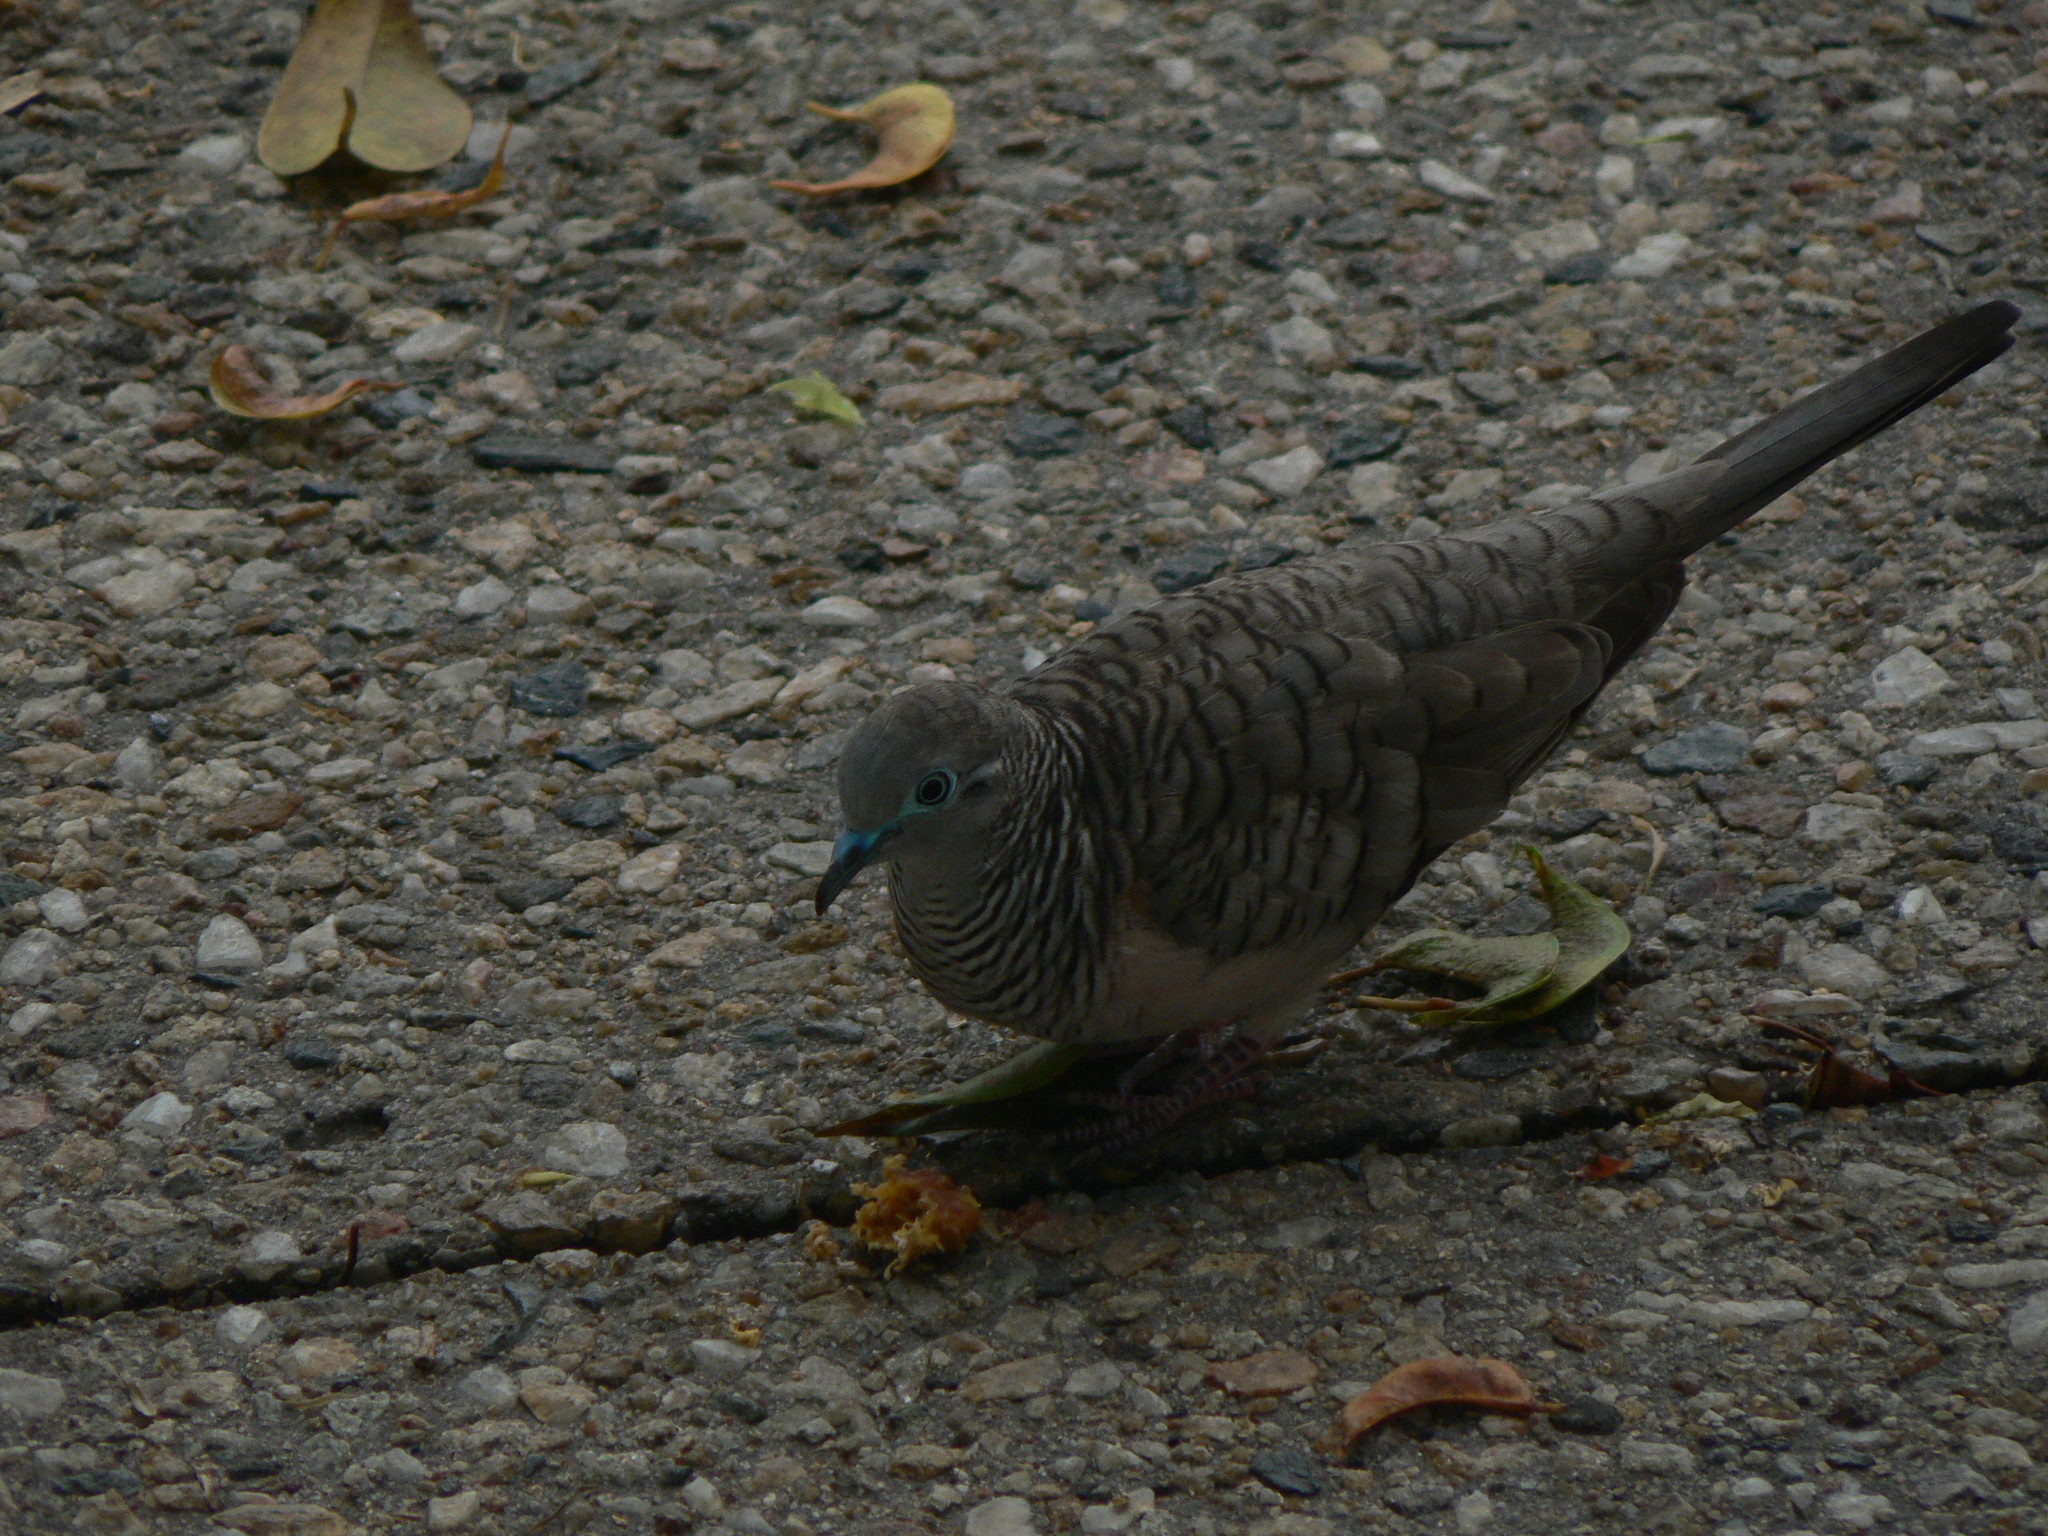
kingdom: Animalia
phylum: Chordata
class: Aves
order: Columbiformes
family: Columbidae
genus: Geopelia
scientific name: Geopelia placida
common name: Peaceful dove
